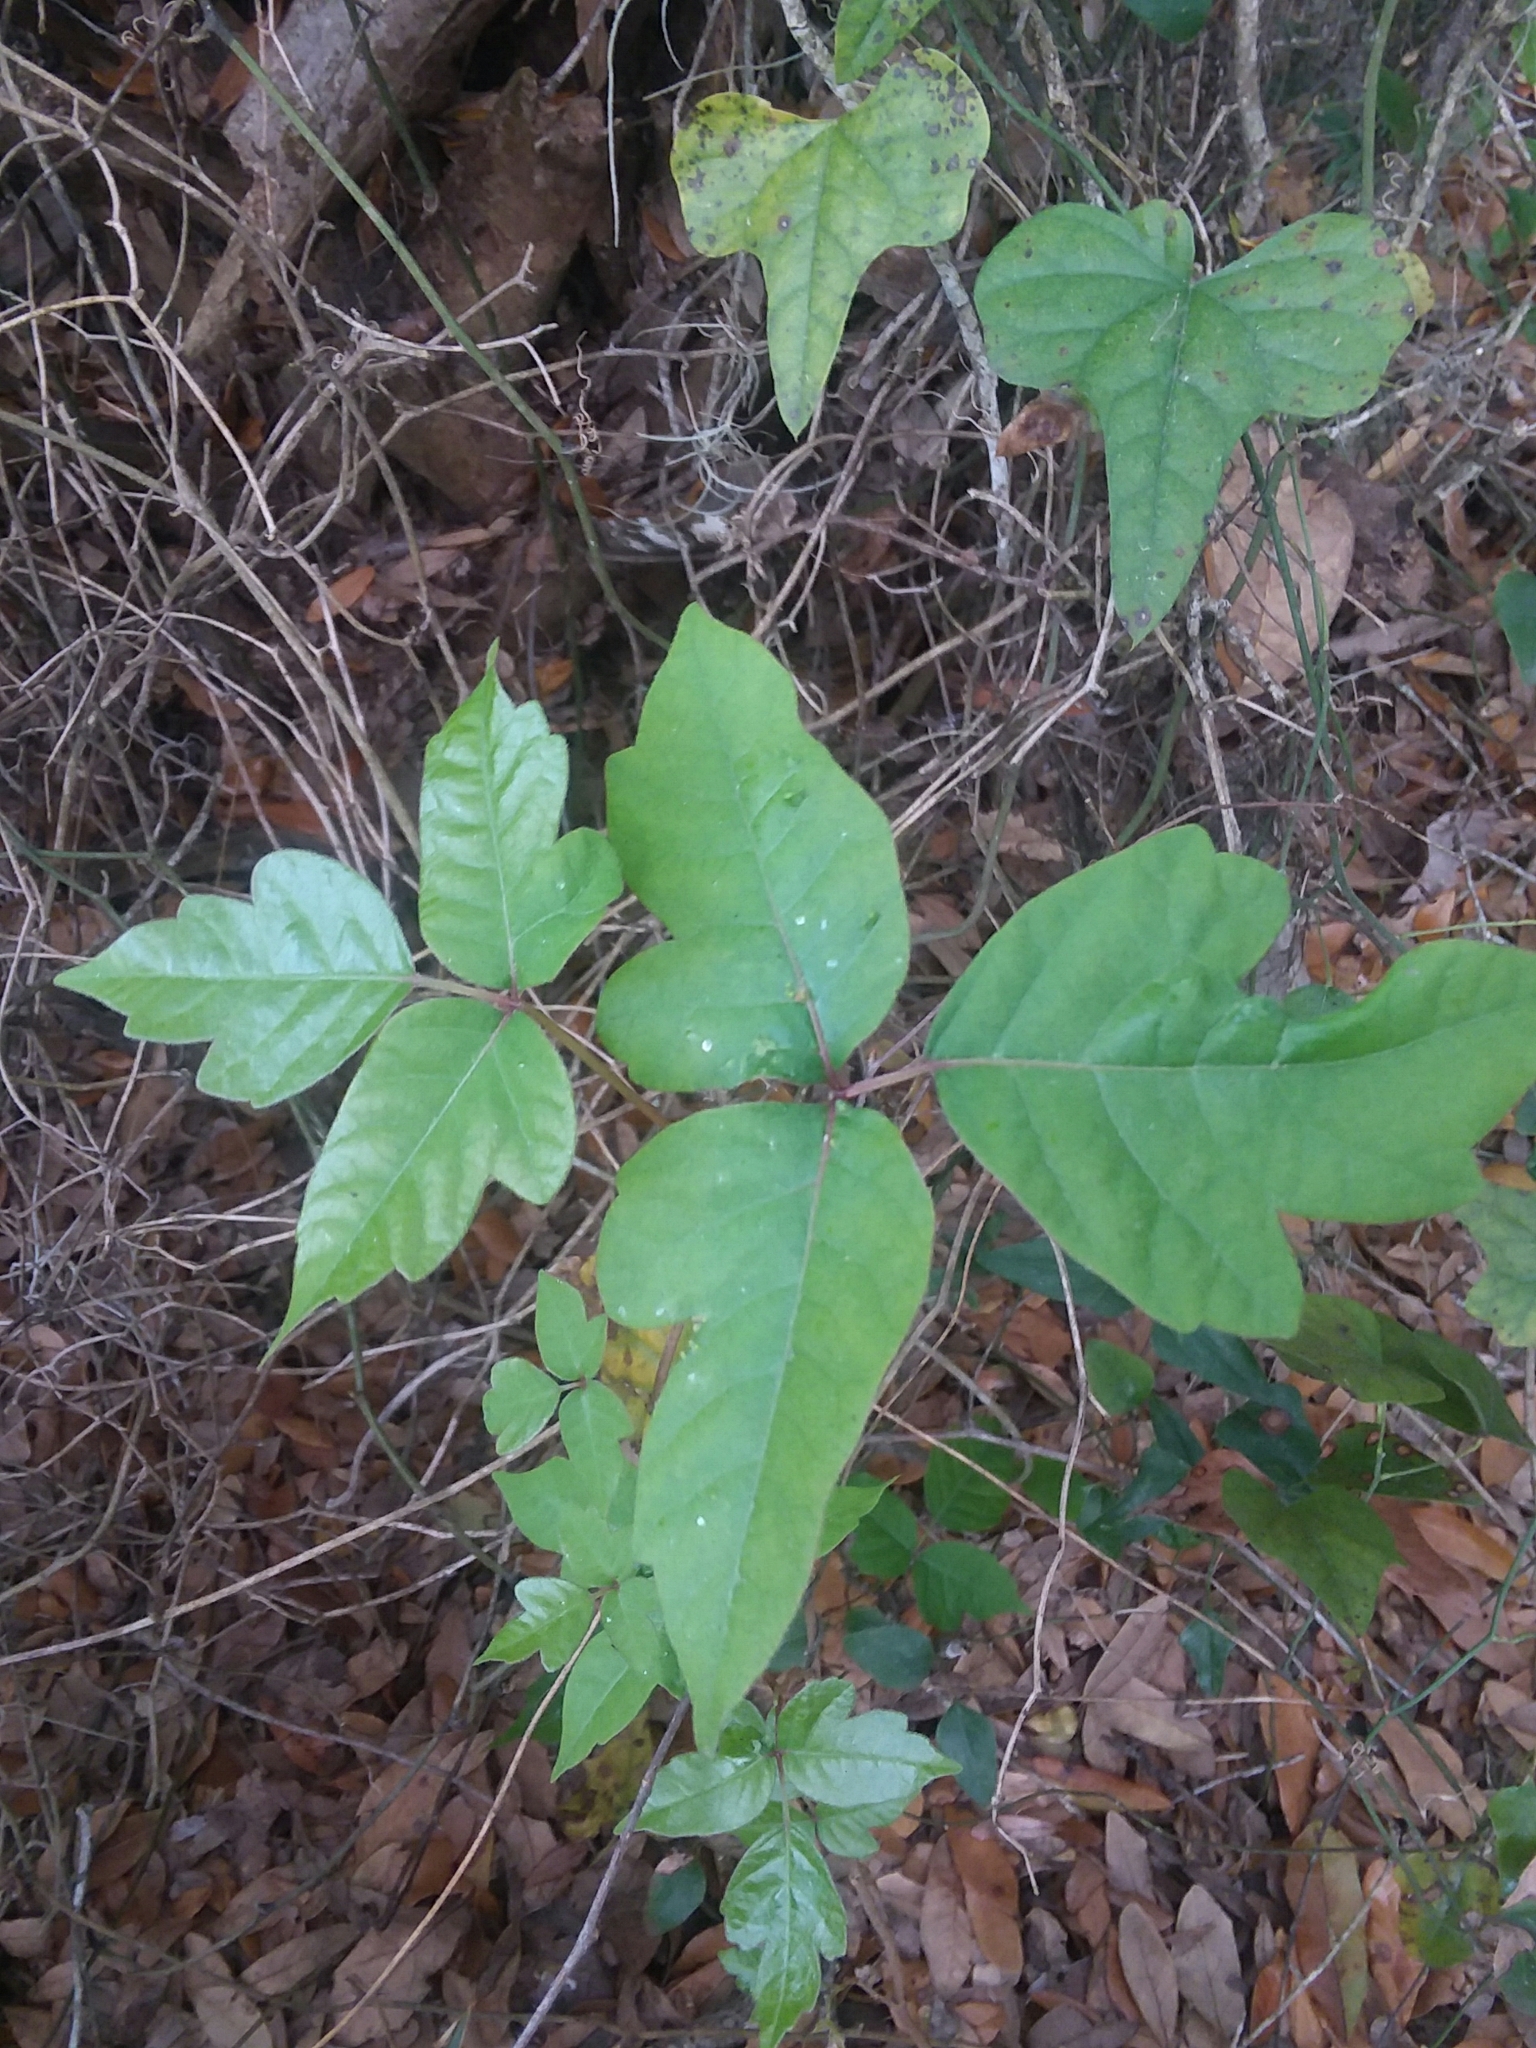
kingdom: Plantae
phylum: Tracheophyta
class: Magnoliopsida
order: Sapindales
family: Anacardiaceae
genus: Toxicodendron
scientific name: Toxicodendron radicans
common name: Poison ivy
